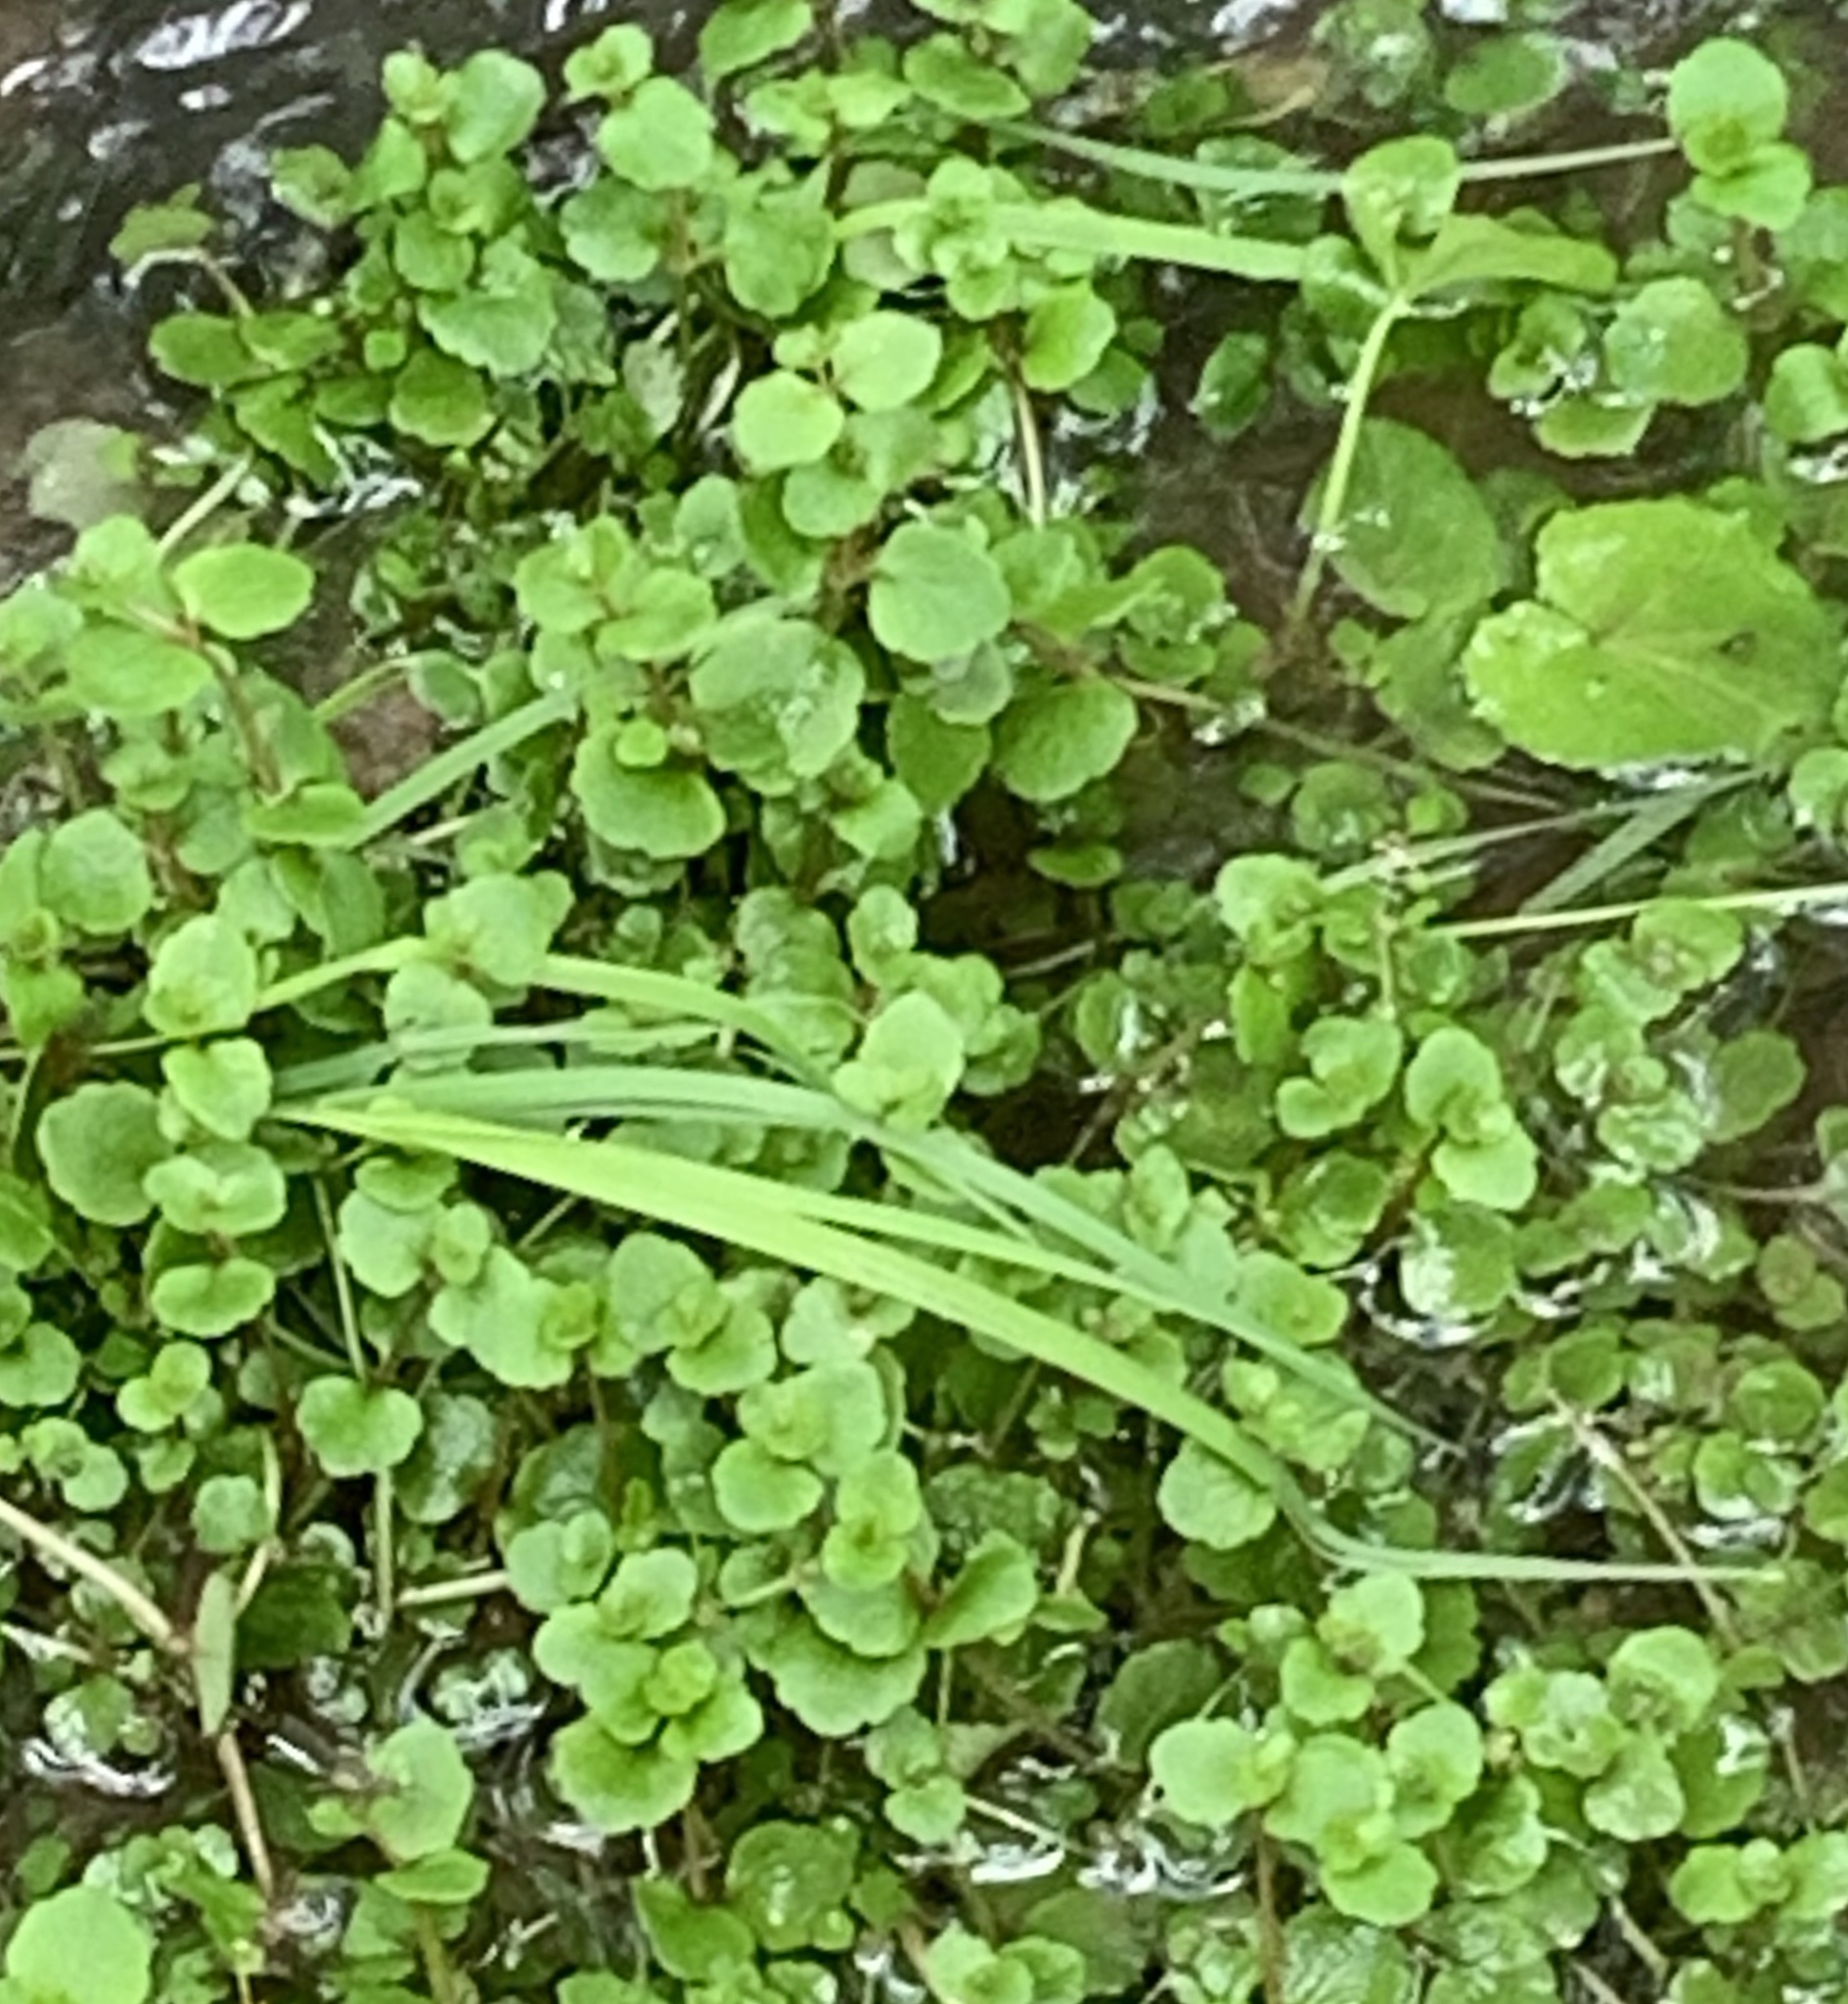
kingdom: Plantae
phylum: Tracheophyta
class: Magnoliopsida
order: Saxifragales
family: Saxifragaceae
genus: Chrysosplenium
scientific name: Chrysosplenium americanum
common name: American golden-saxifrage
